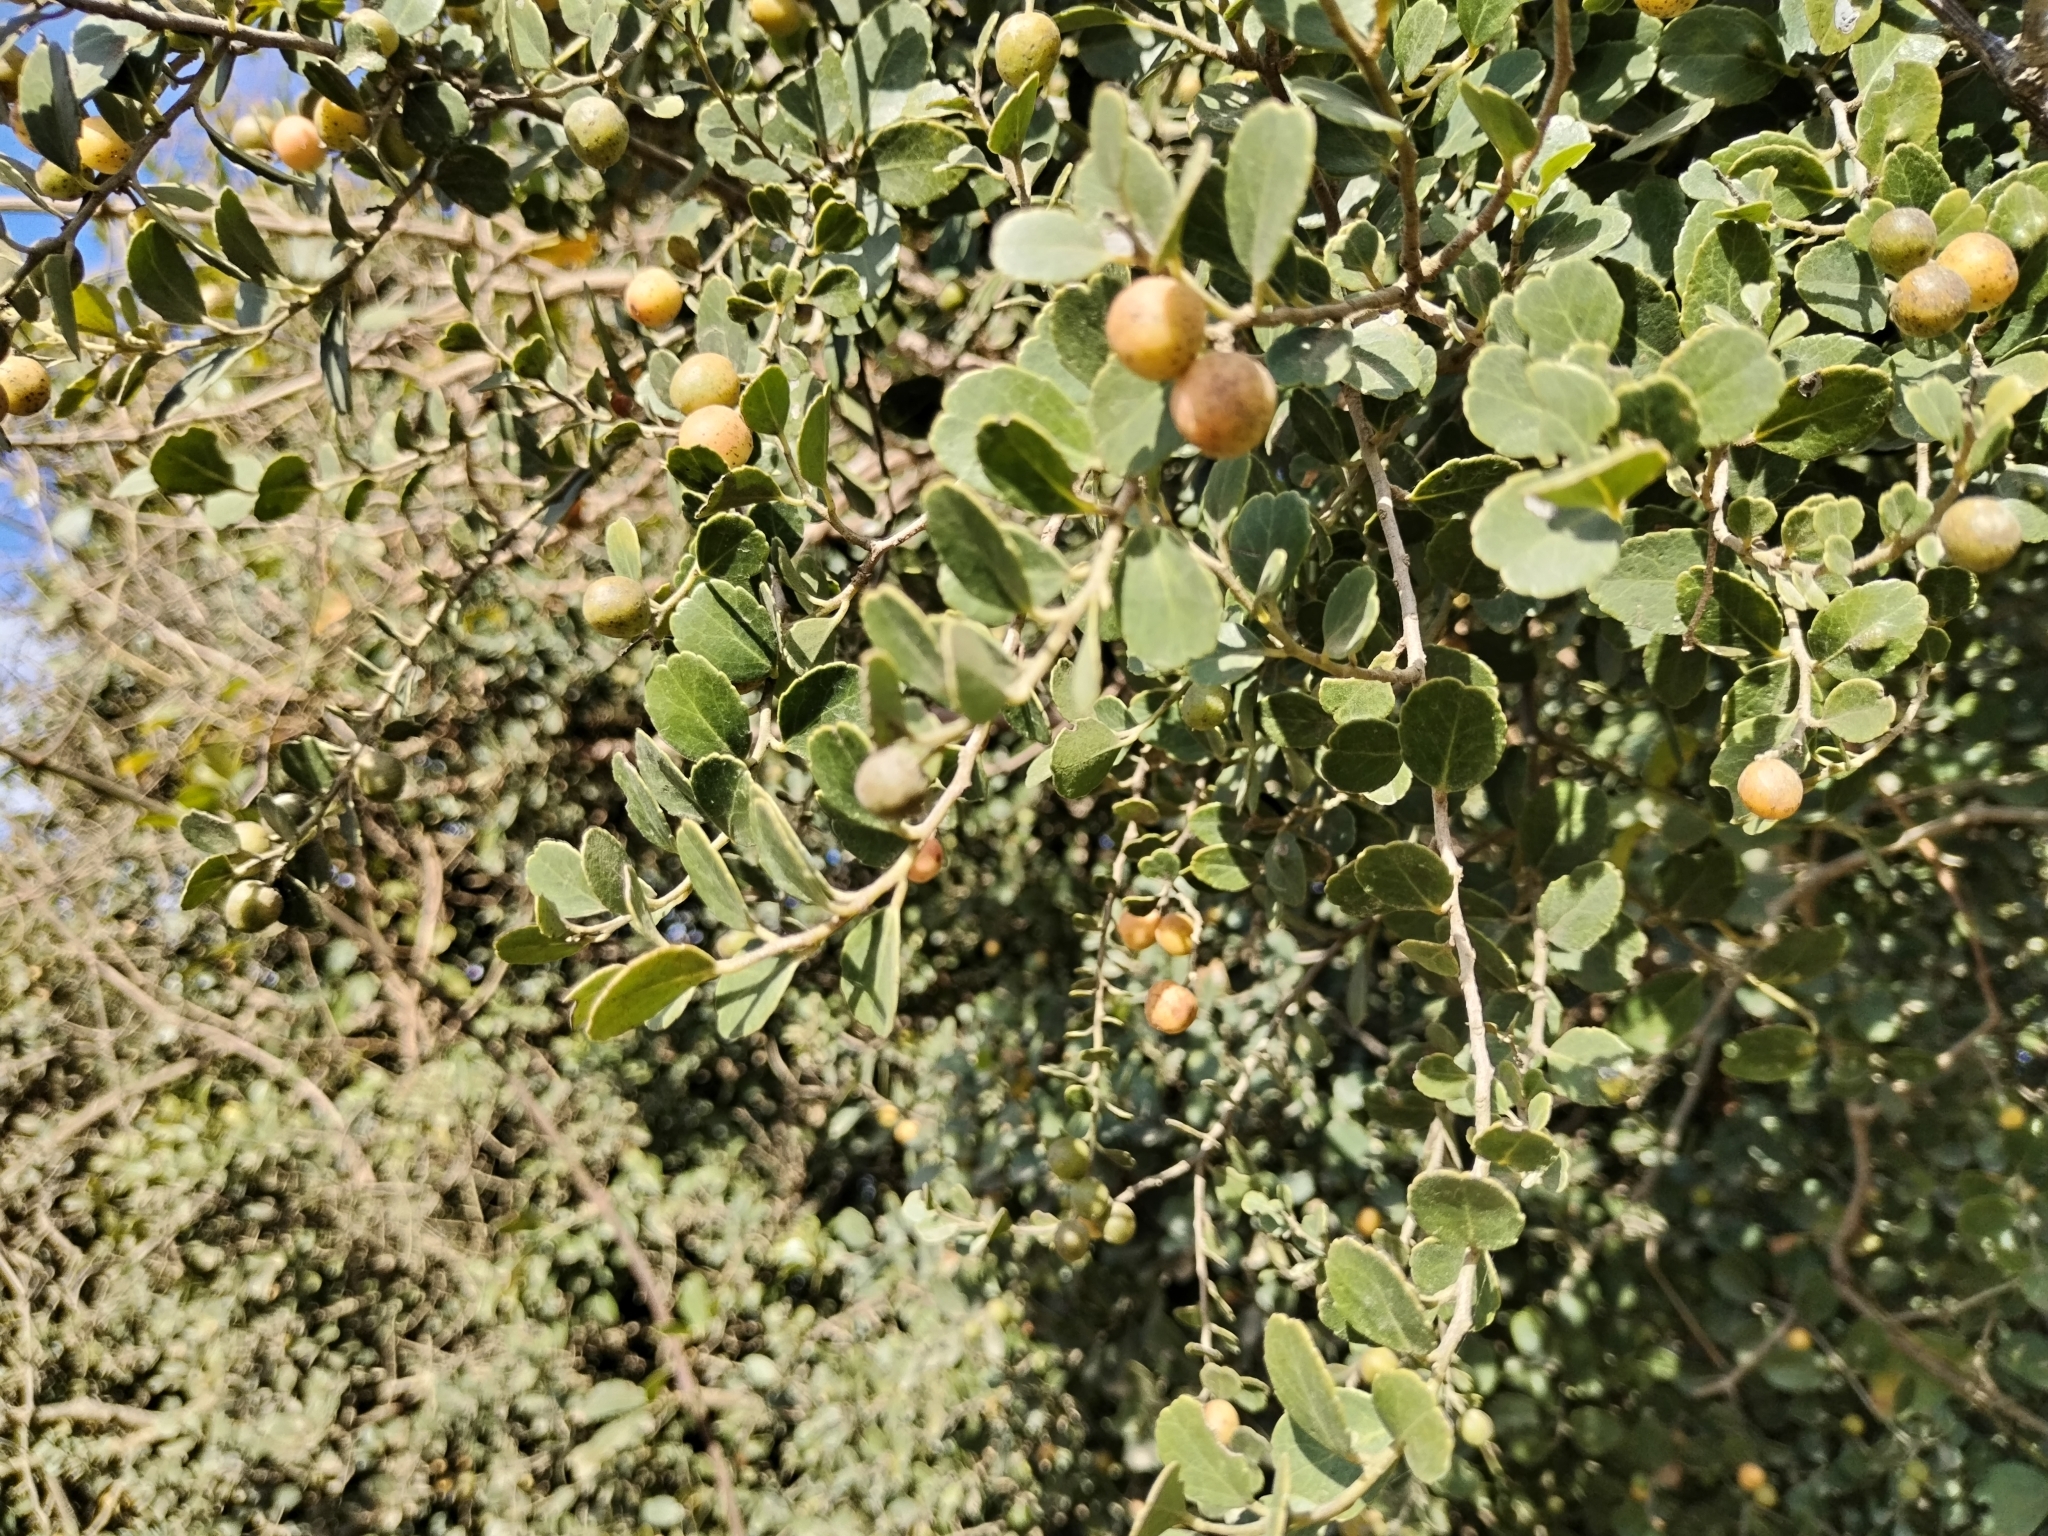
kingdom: Plantae
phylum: Tracheophyta
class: Magnoliopsida
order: Celastrales
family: Celastraceae
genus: Mystroxylon
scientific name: Mystroxylon aethiopicum
